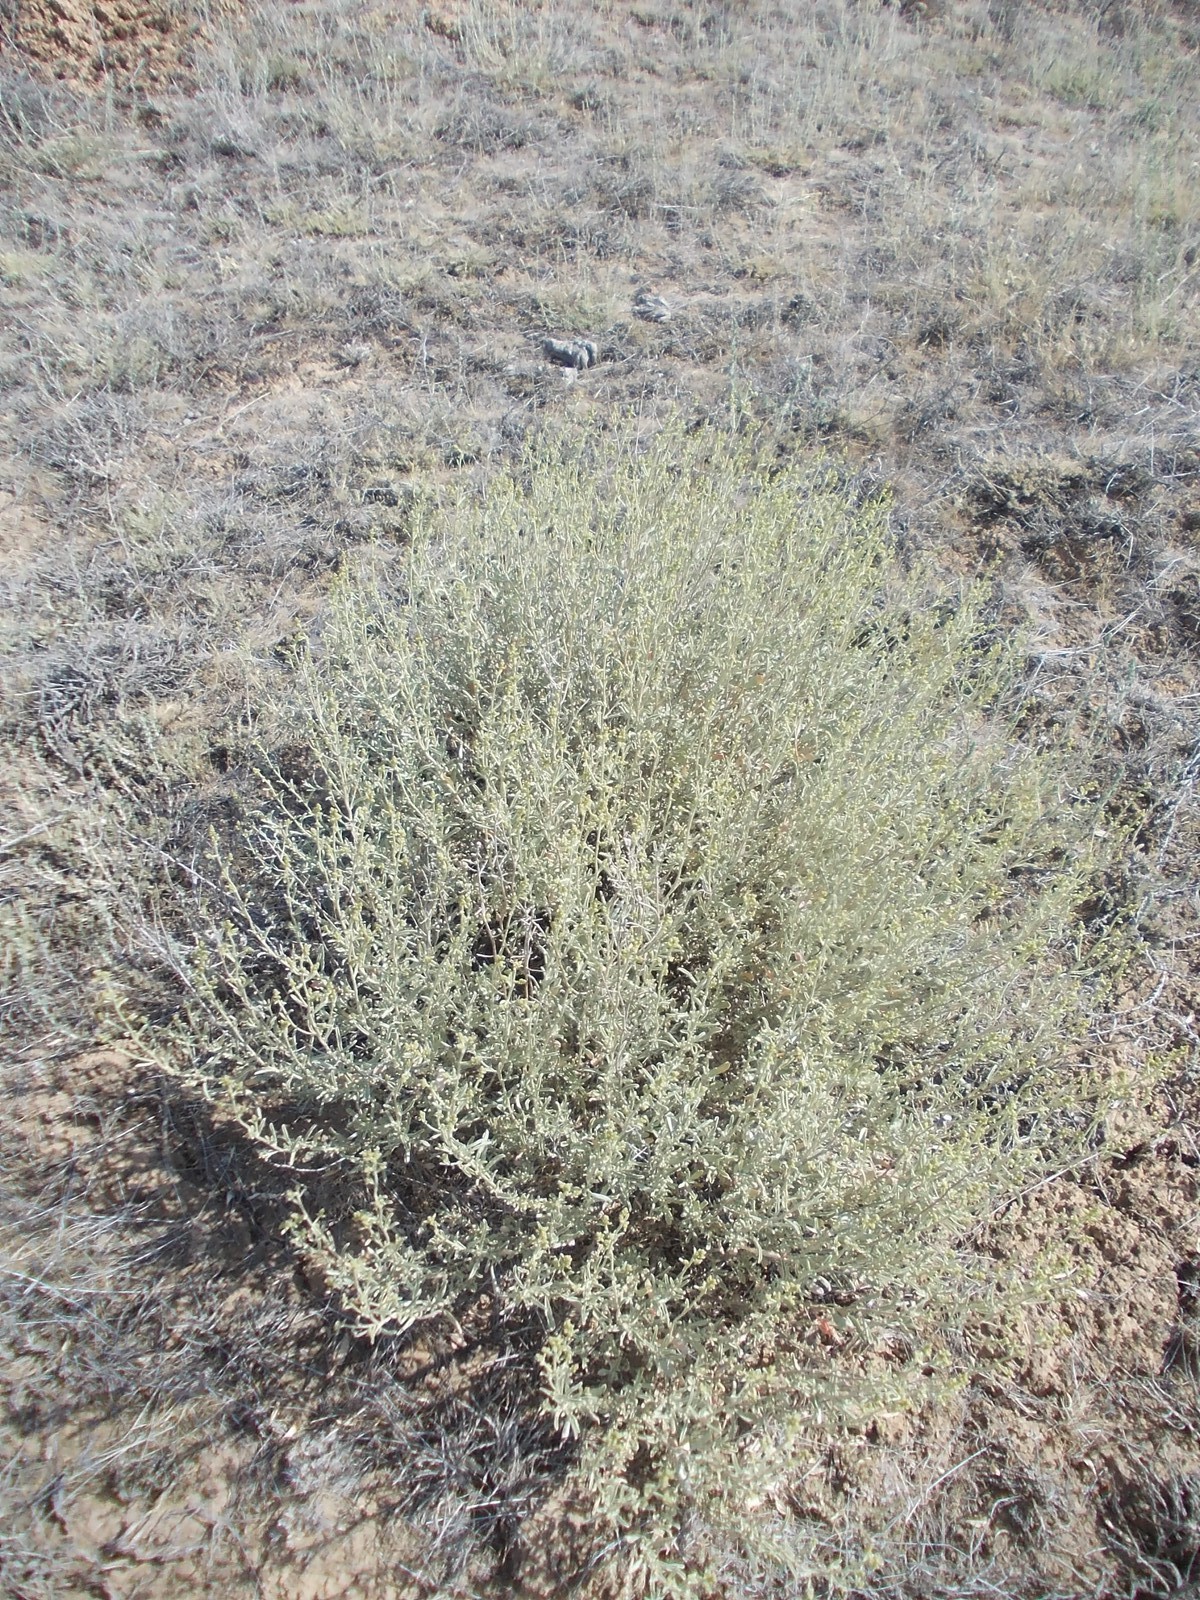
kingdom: Plantae
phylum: Tracheophyta
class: Magnoliopsida
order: Caryophyllales
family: Amaranthaceae
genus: Atriplex
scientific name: Atriplex cana
